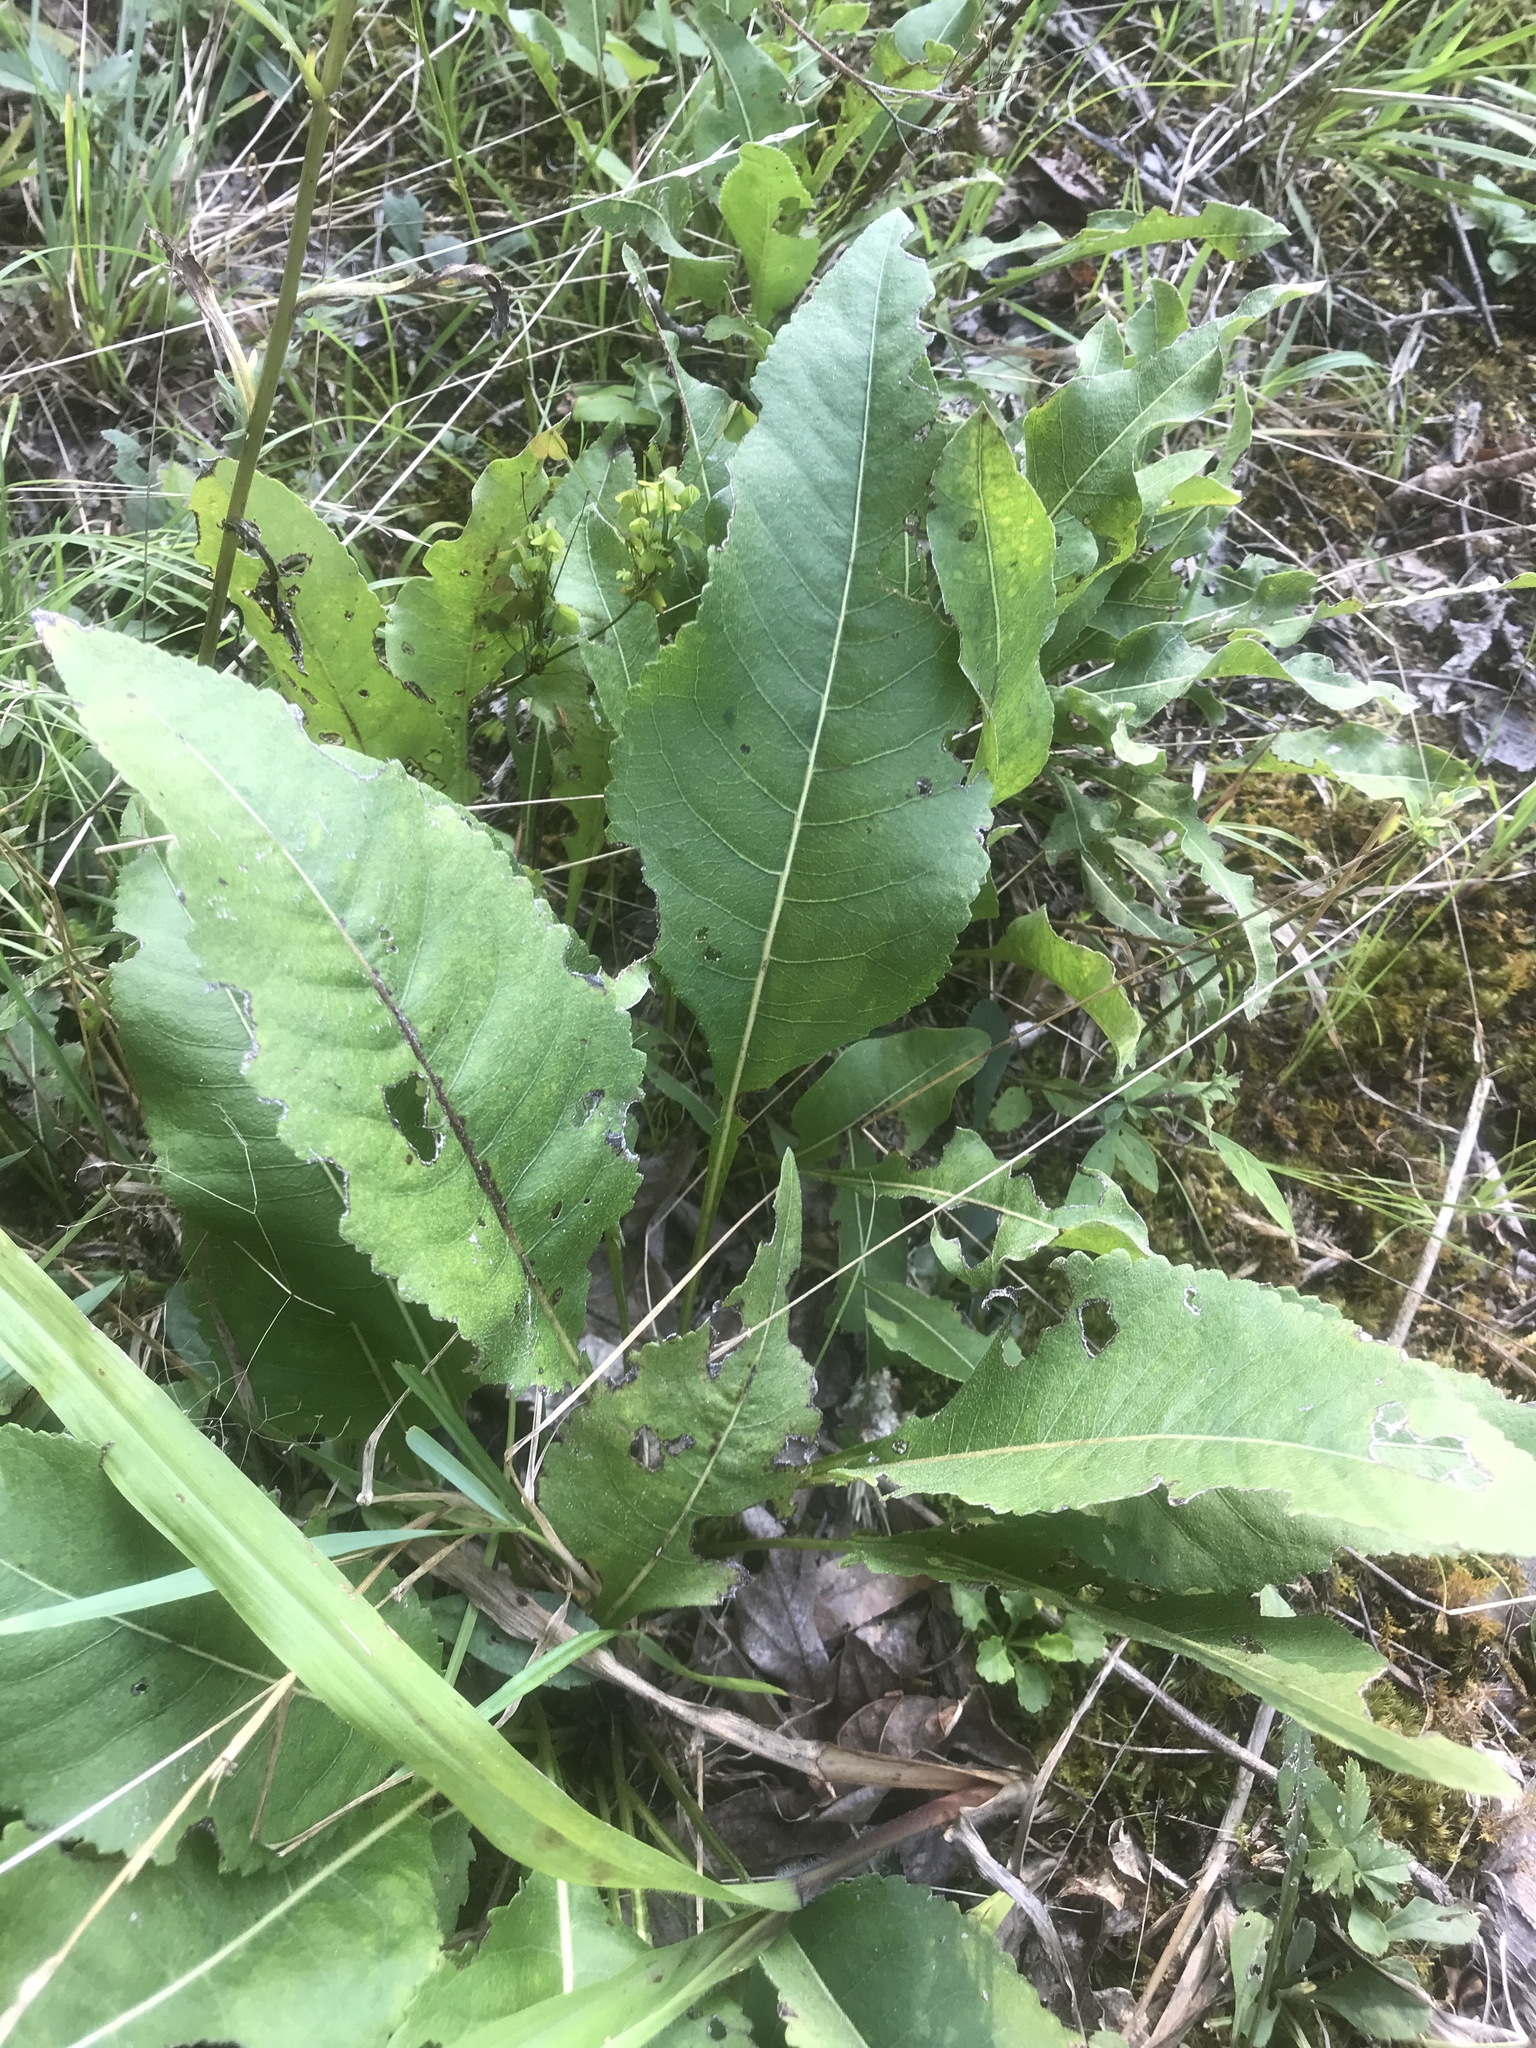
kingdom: Plantae
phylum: Tracheophyta
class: Magnoliopsida
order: Asterales
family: Asteraceae
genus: Parthenium
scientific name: Parthenium integrifolium
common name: American feverfew
